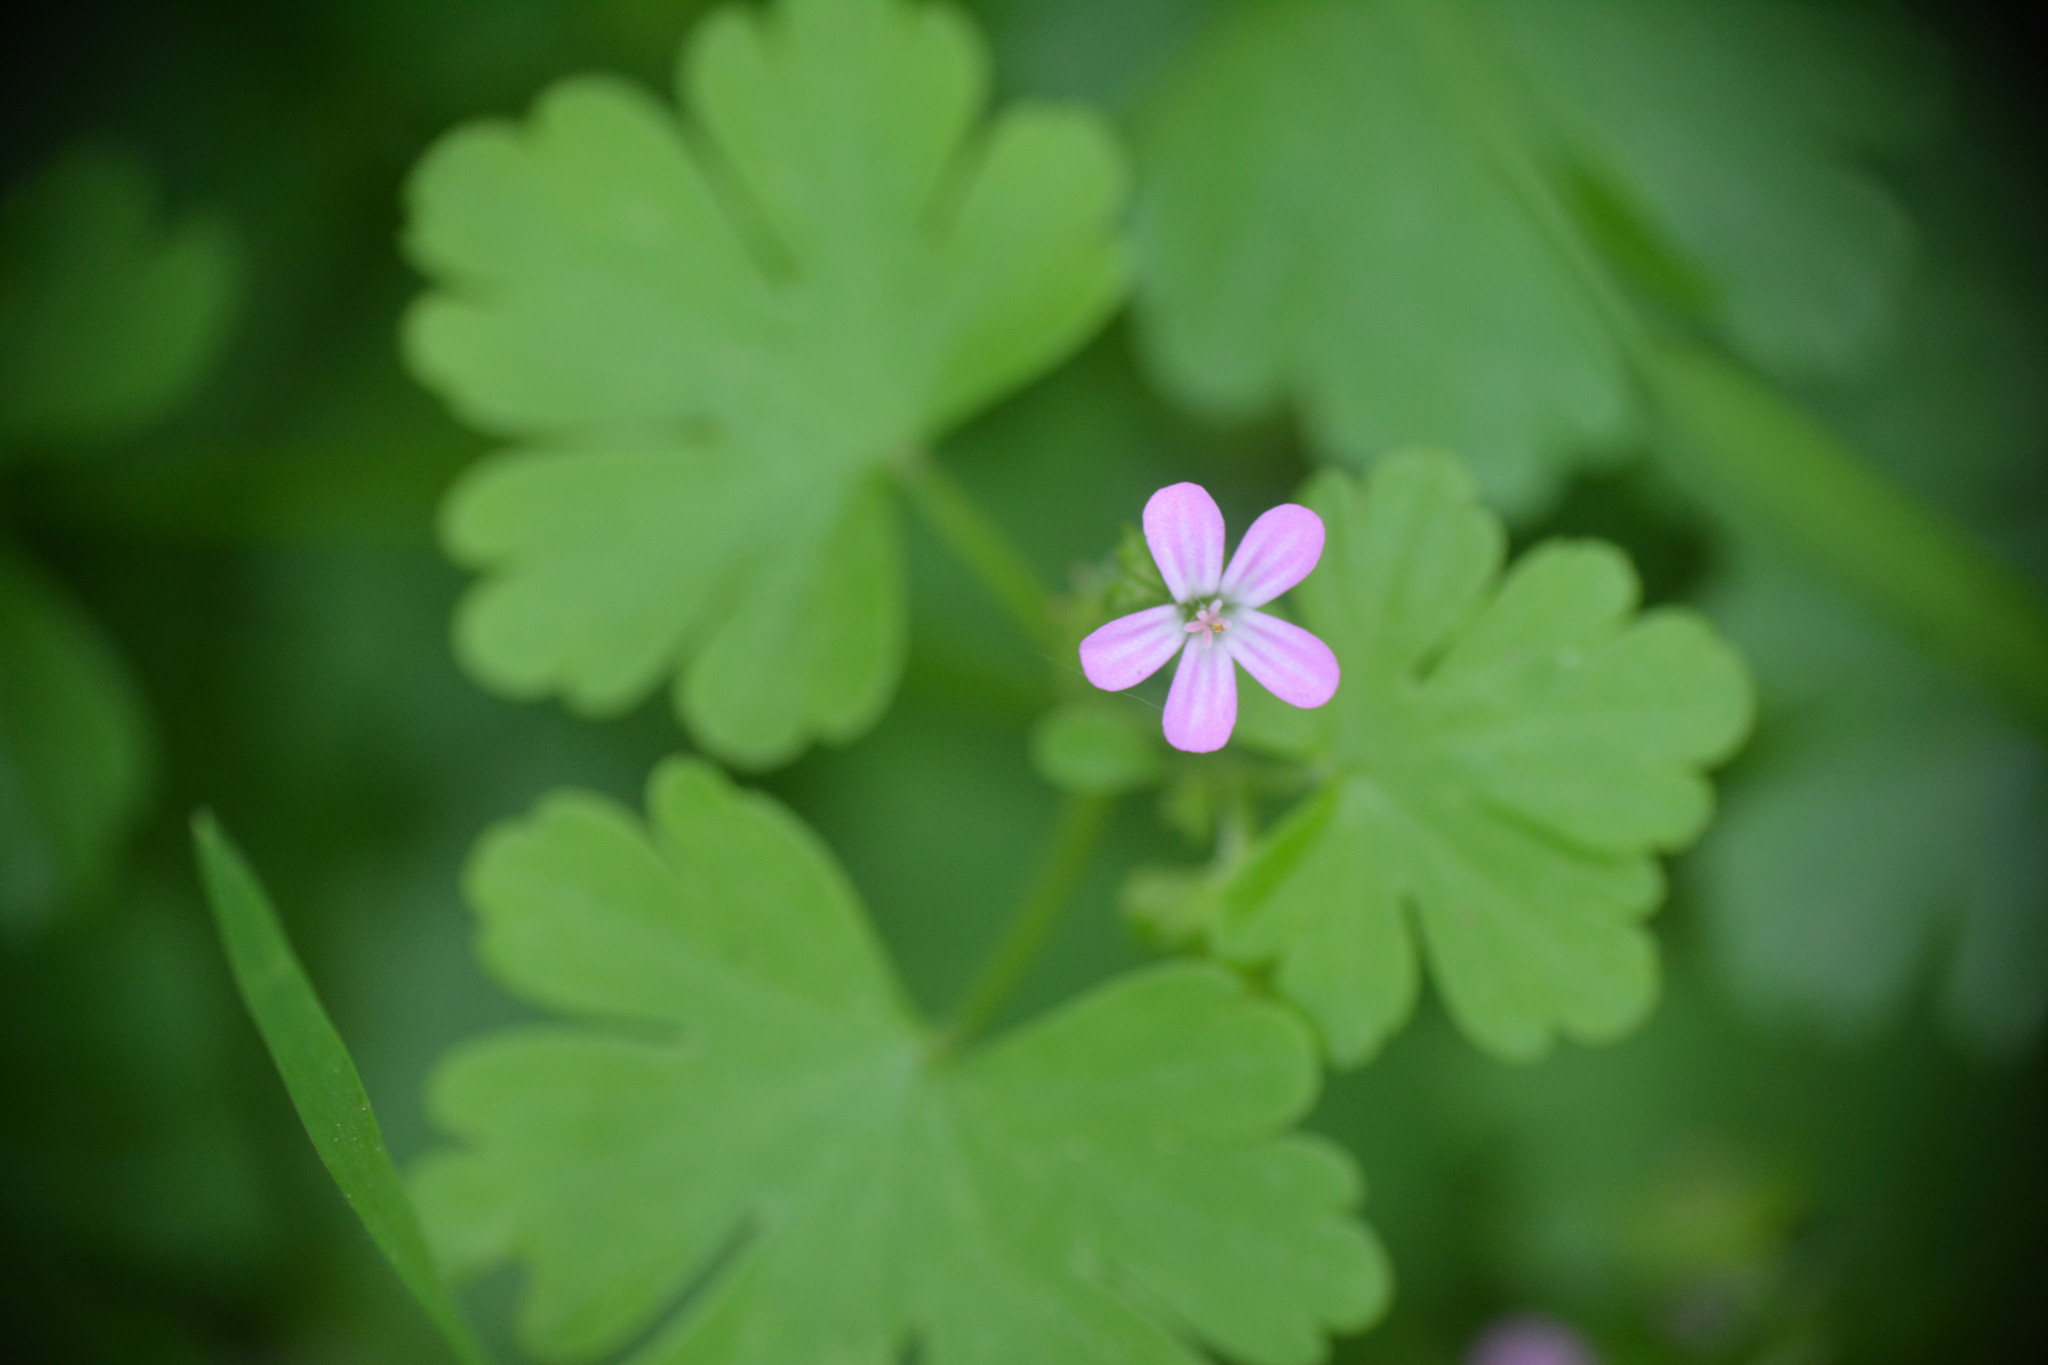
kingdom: Plantae
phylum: Tracheophyta
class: Magnoliopsida
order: Geraniales
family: Geraniaceae
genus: Geranium
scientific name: Geranium lucidum
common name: Shining crane's-bill
